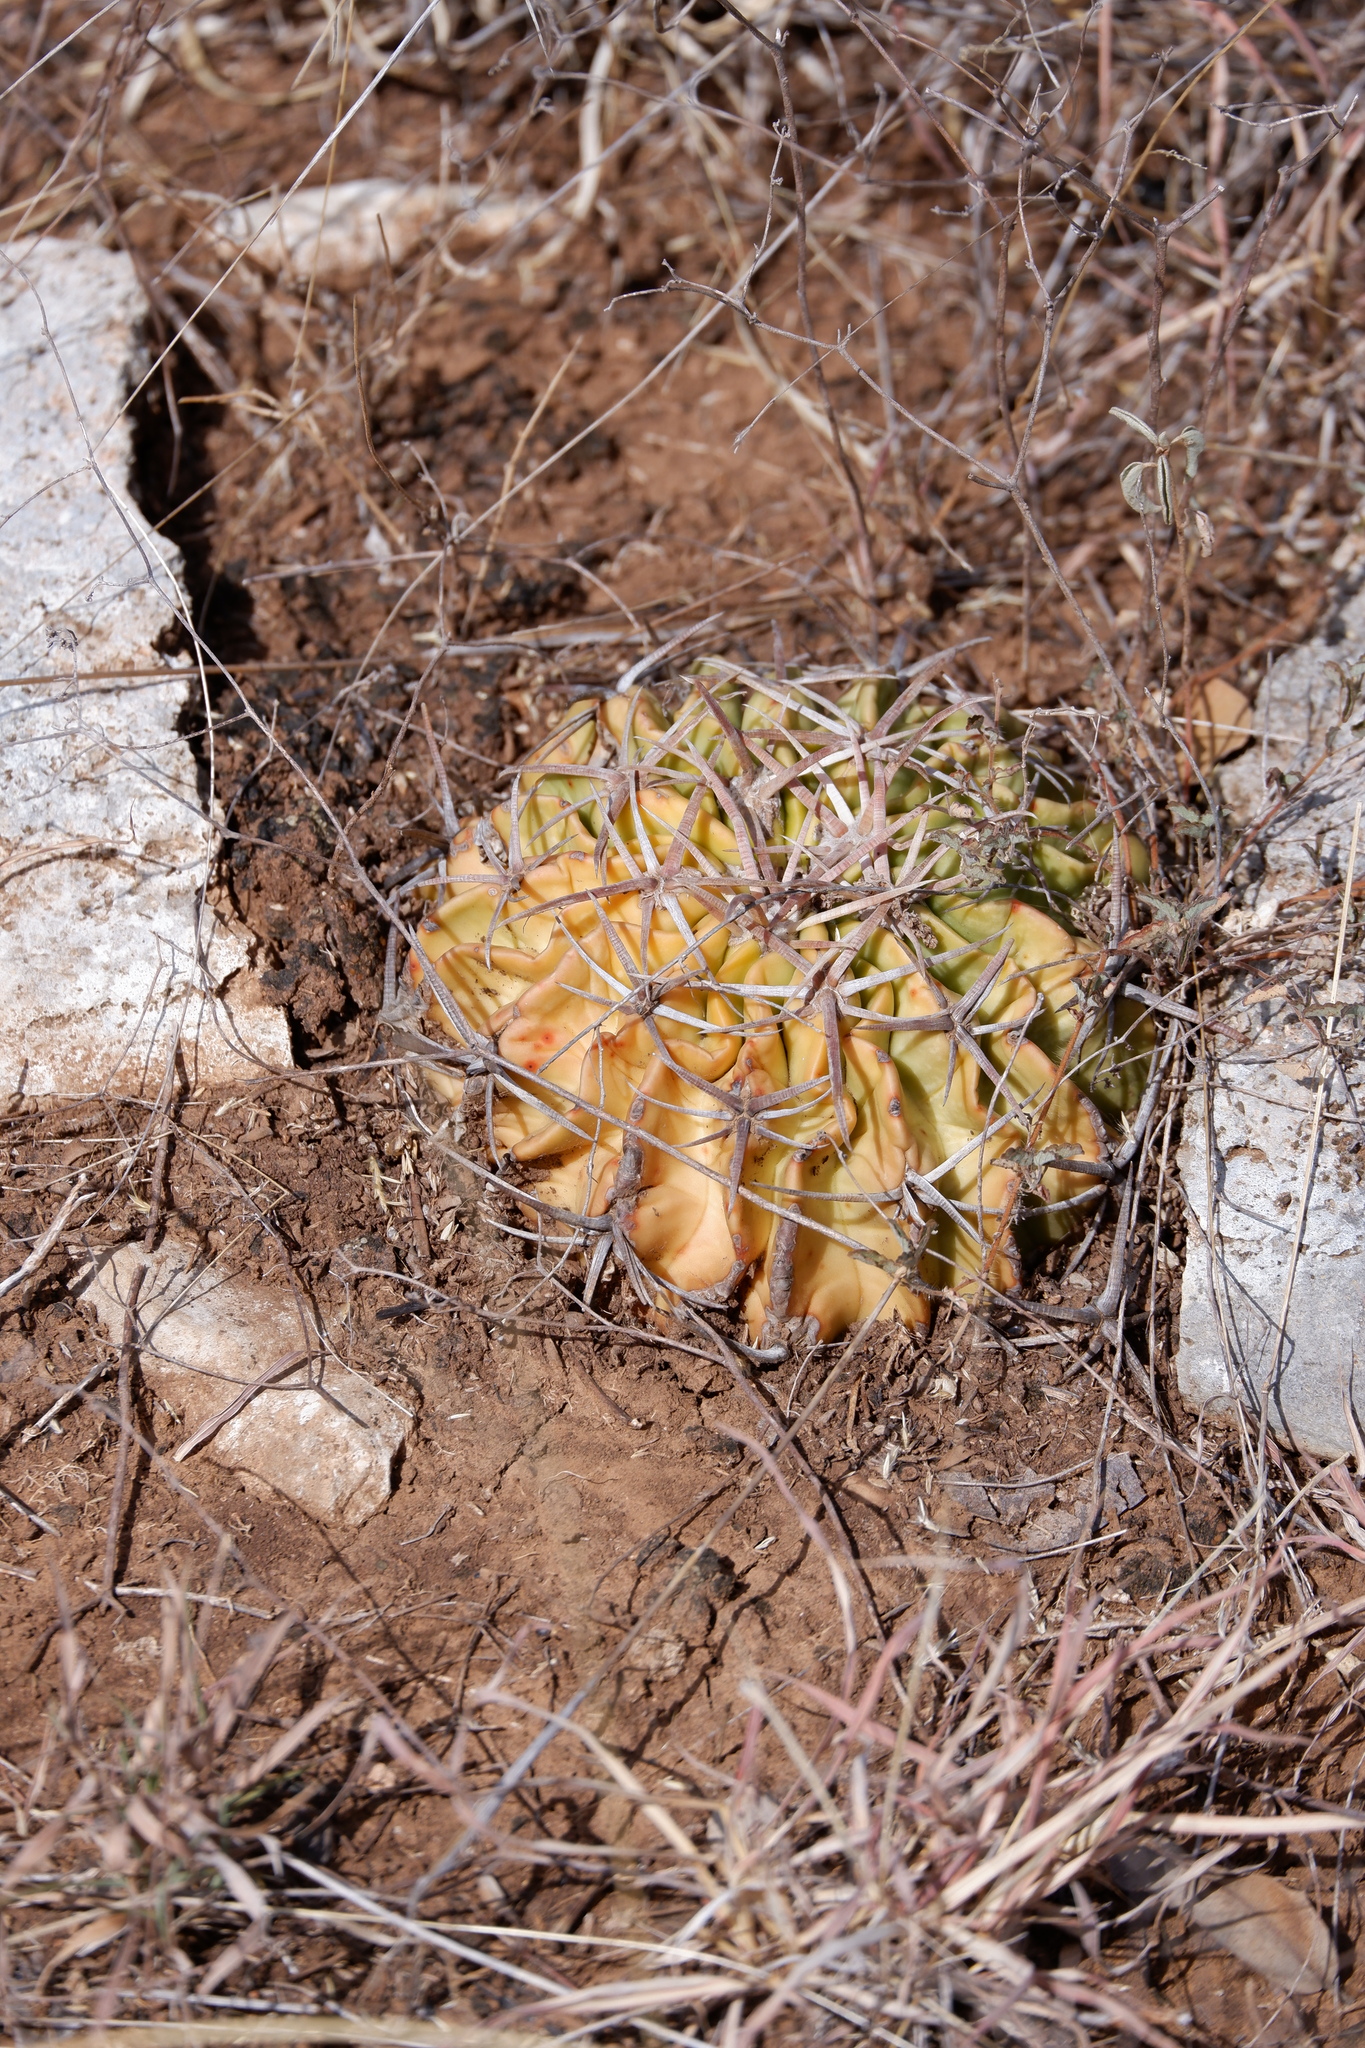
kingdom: Plantae
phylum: Tracheophyta
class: Magnoliopsida
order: Caryophyllales
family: Cactaceae
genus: Echinocactus
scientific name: Echinocactus texensis
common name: Devil's pincushion
